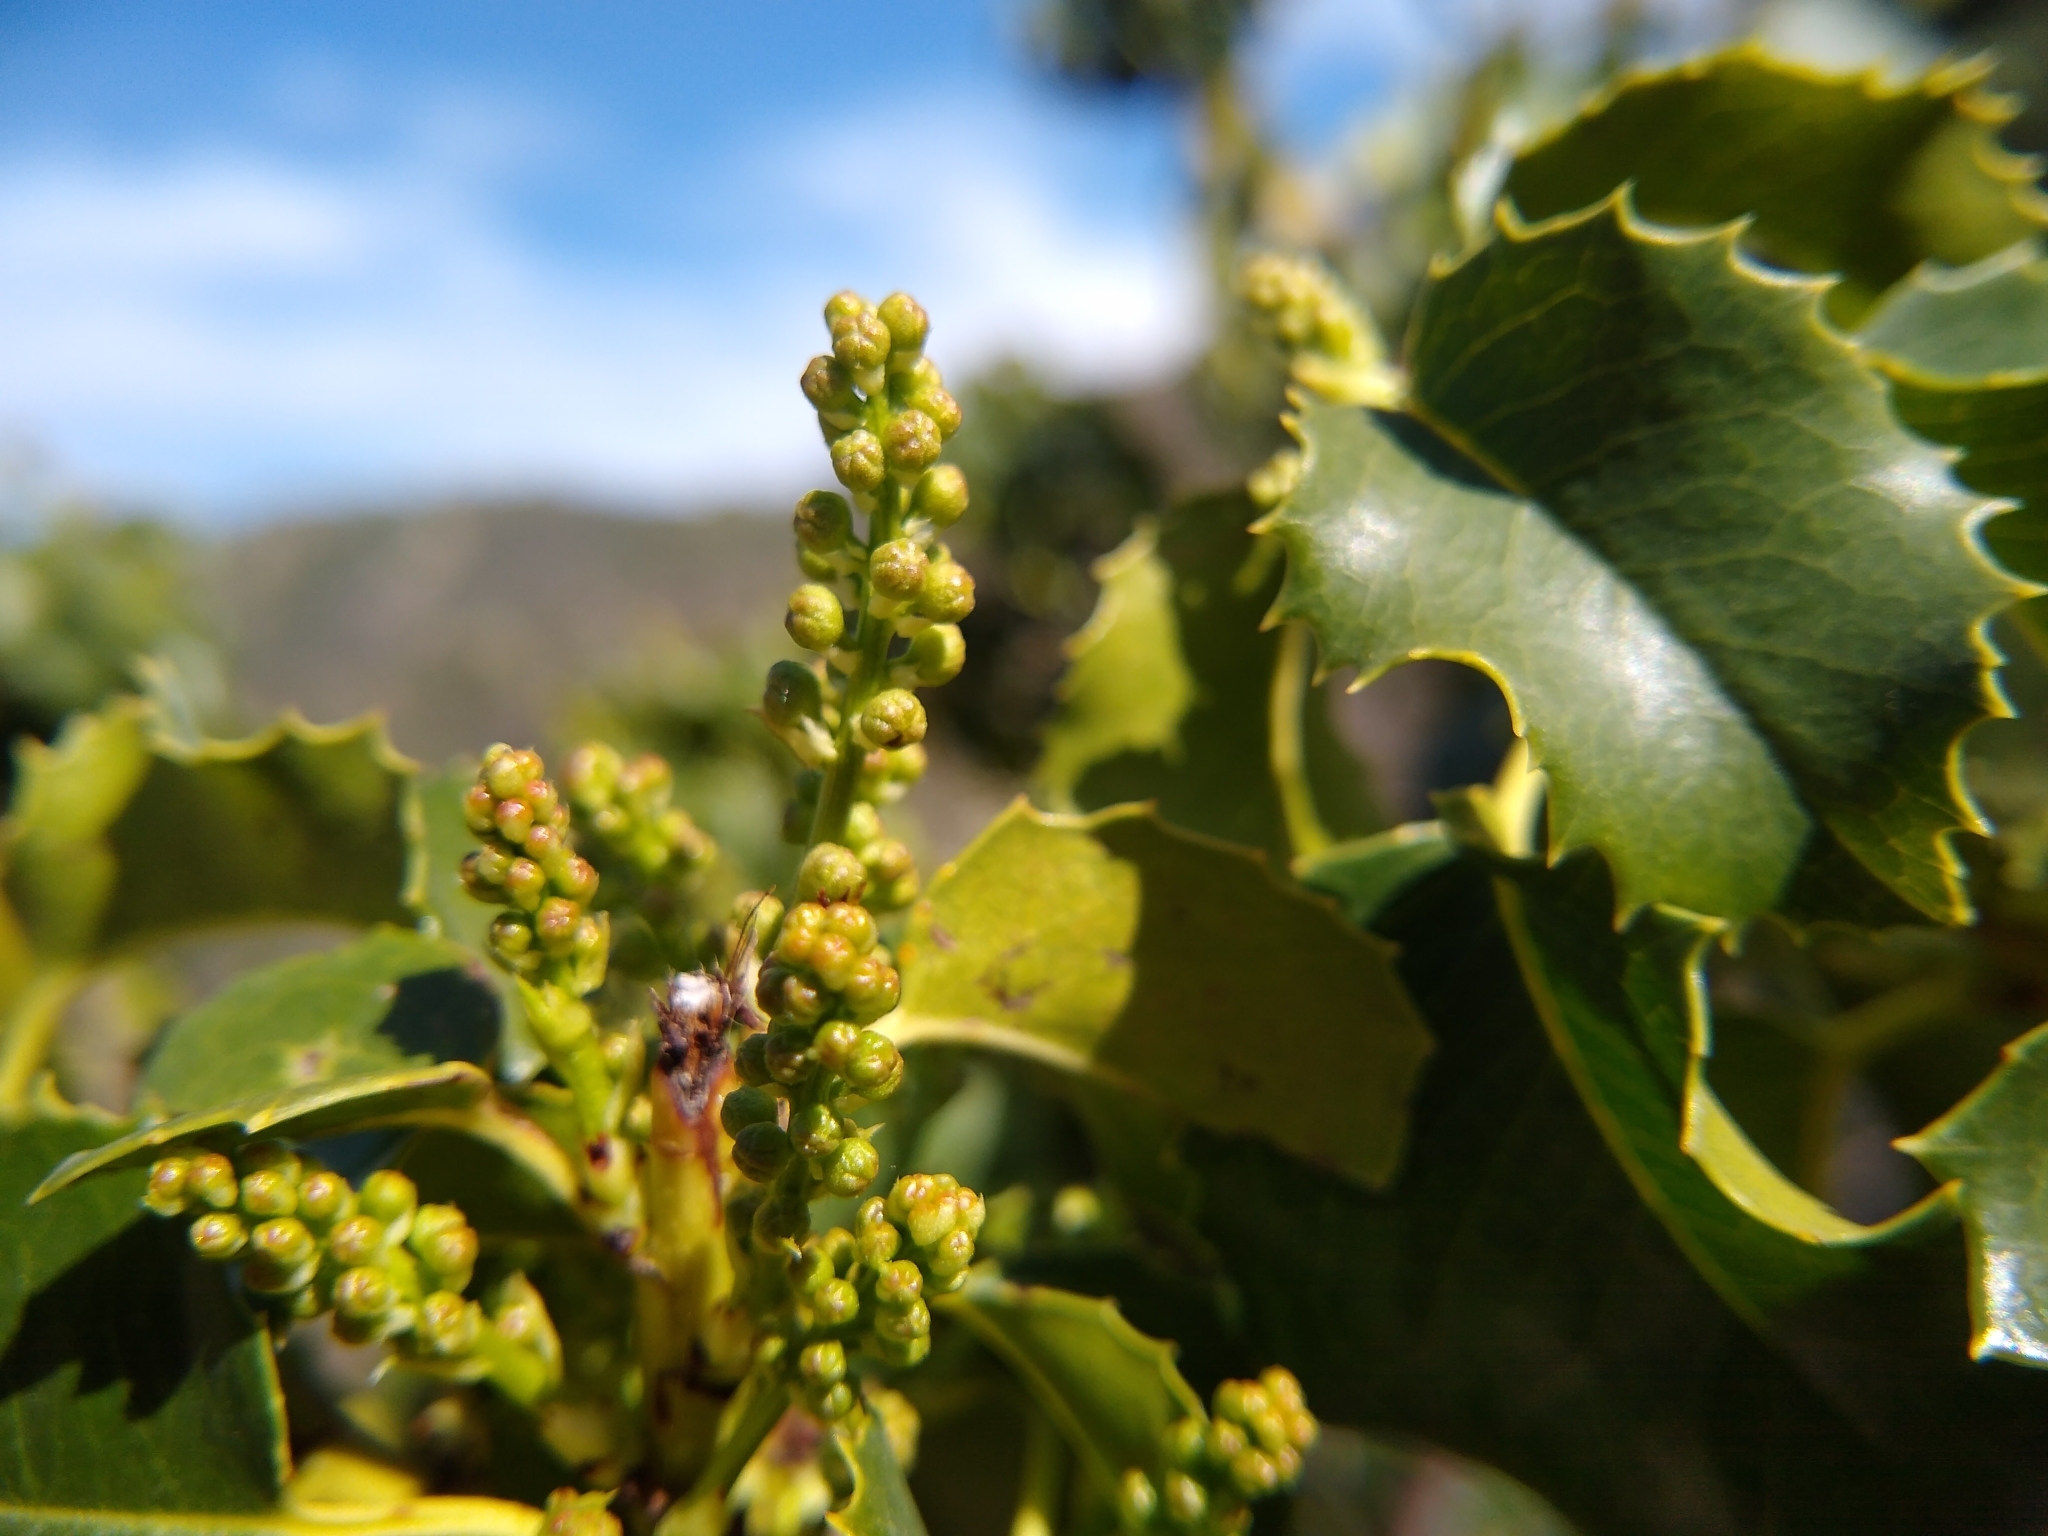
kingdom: Plantae
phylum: Tracheophyta
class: Magnoliopsida
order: Rosales
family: Rosaceae
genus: Prunus
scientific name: Prunus ilicifolia
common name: Hollyleaf cherry
